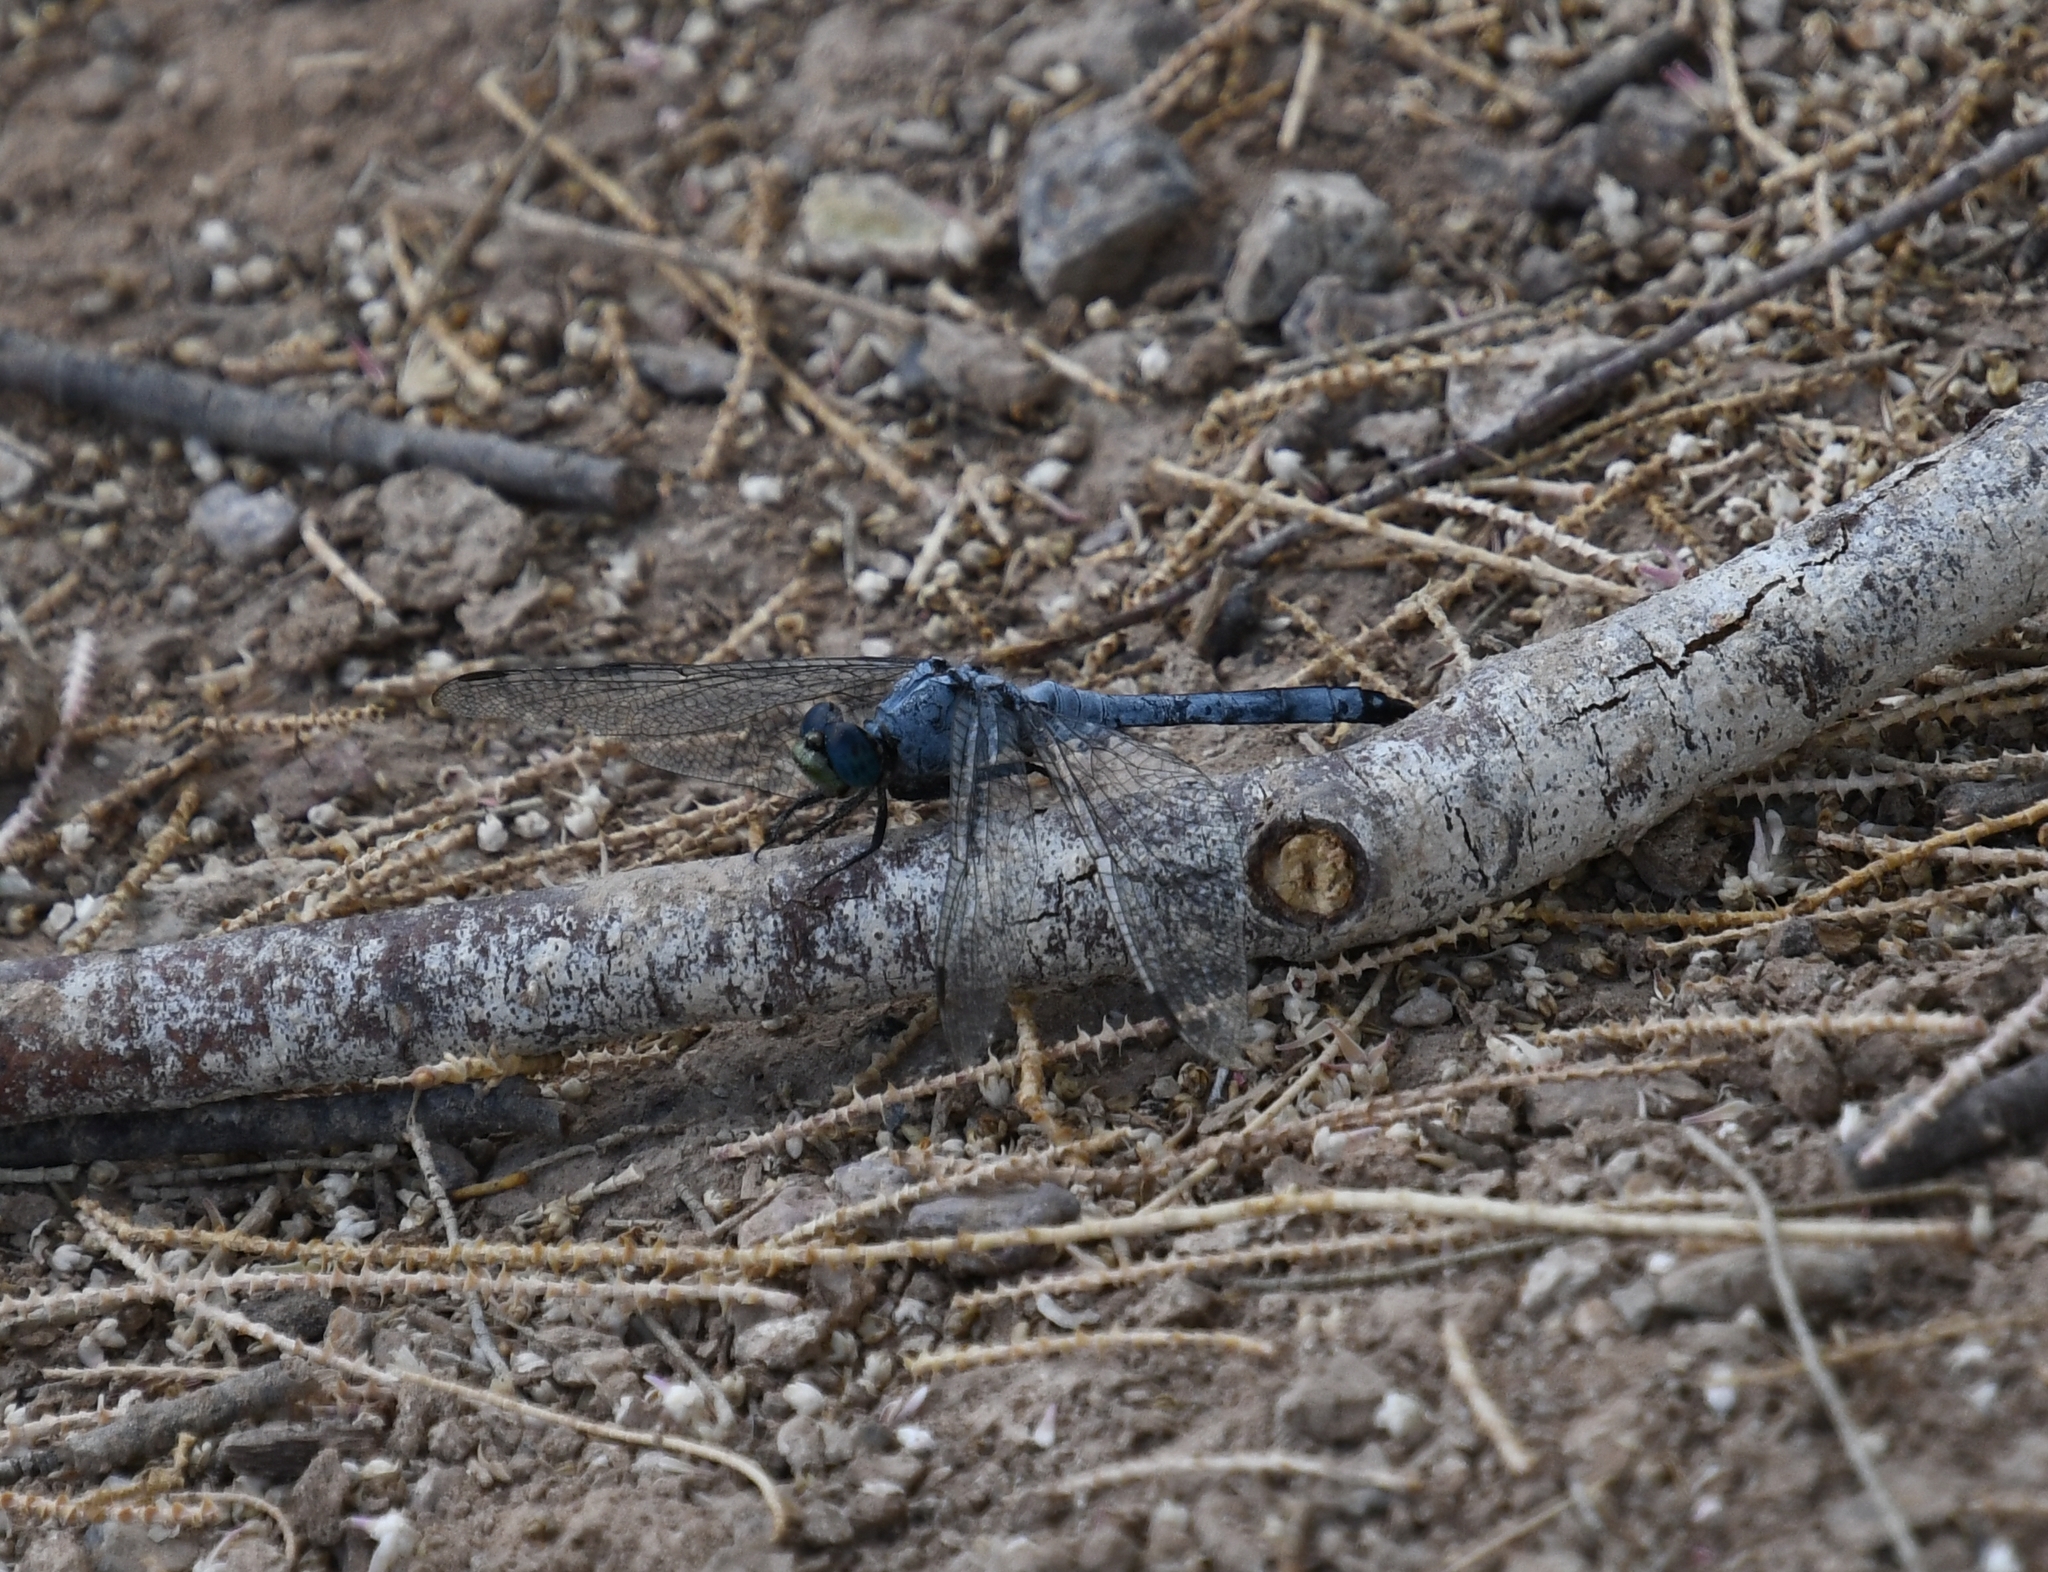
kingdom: Animalia
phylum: Arthropoda
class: Insecta
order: Odonata
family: Libellulidae
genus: Erythemis
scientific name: Erythemis collocata
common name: Western pondhawk
